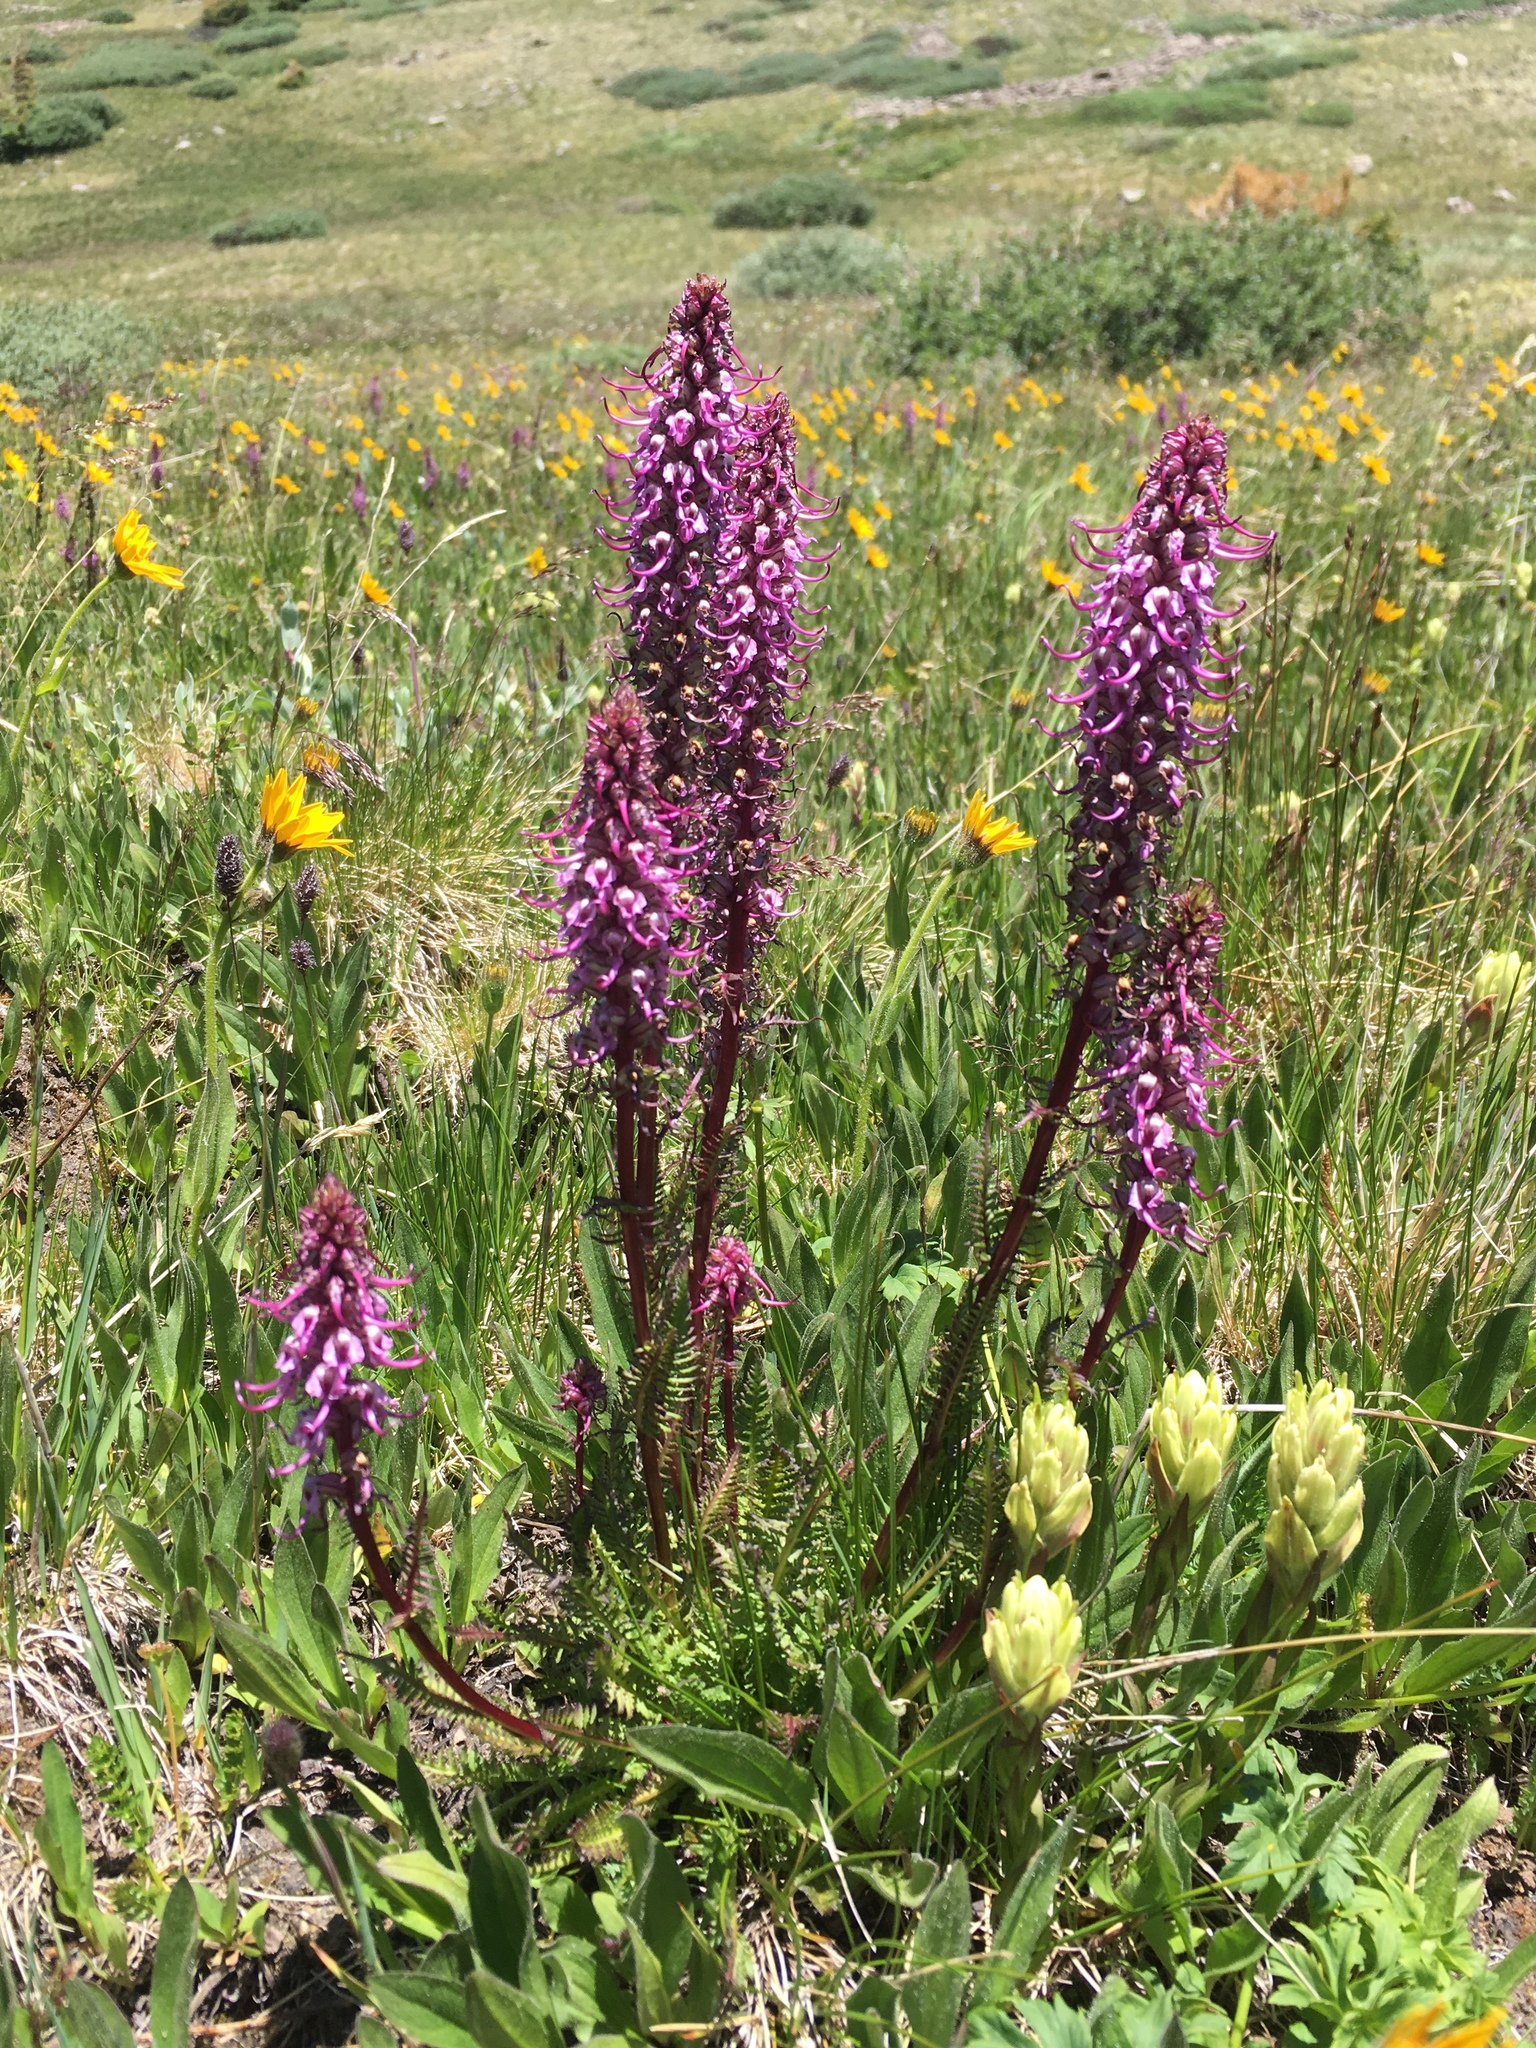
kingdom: Plantae
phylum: Tracheophyta
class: Magnoliopsida
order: Lamiales
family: Orobanchaceae
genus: Pedicularis
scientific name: Pedicularis groenlandica
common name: Elephant's-head
